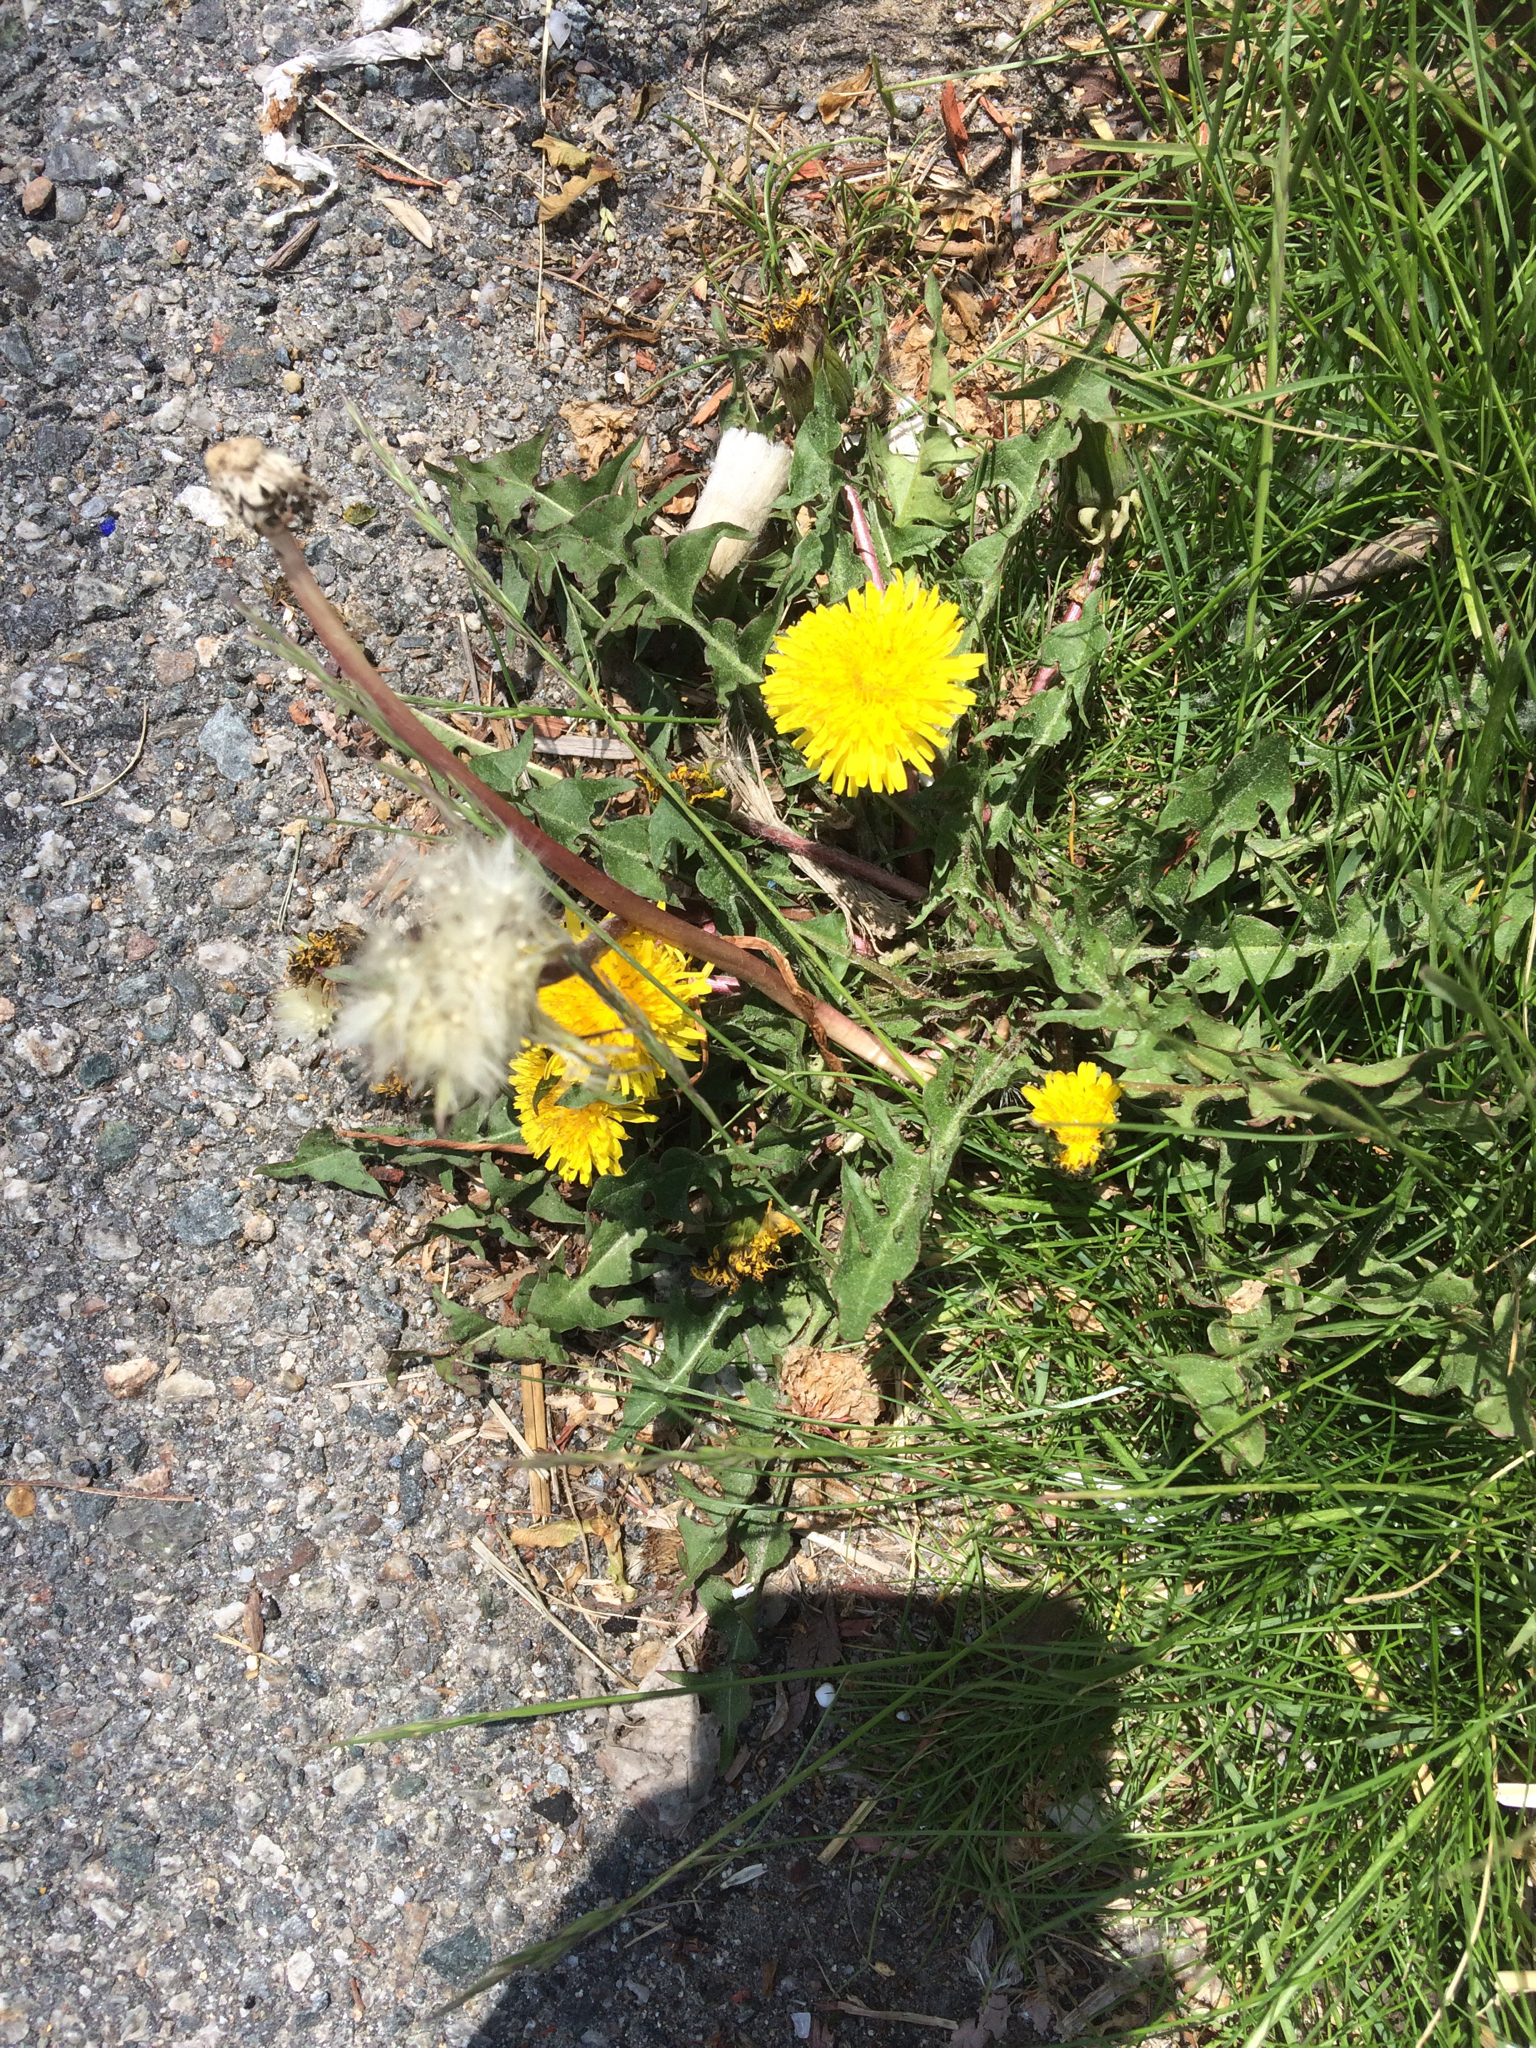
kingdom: Plantae
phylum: Tracheophyta
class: Magnoliopsida
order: Asterales
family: Asteraceae
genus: Taraxacum
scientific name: Taraxacum officinale
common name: Common dandelion
